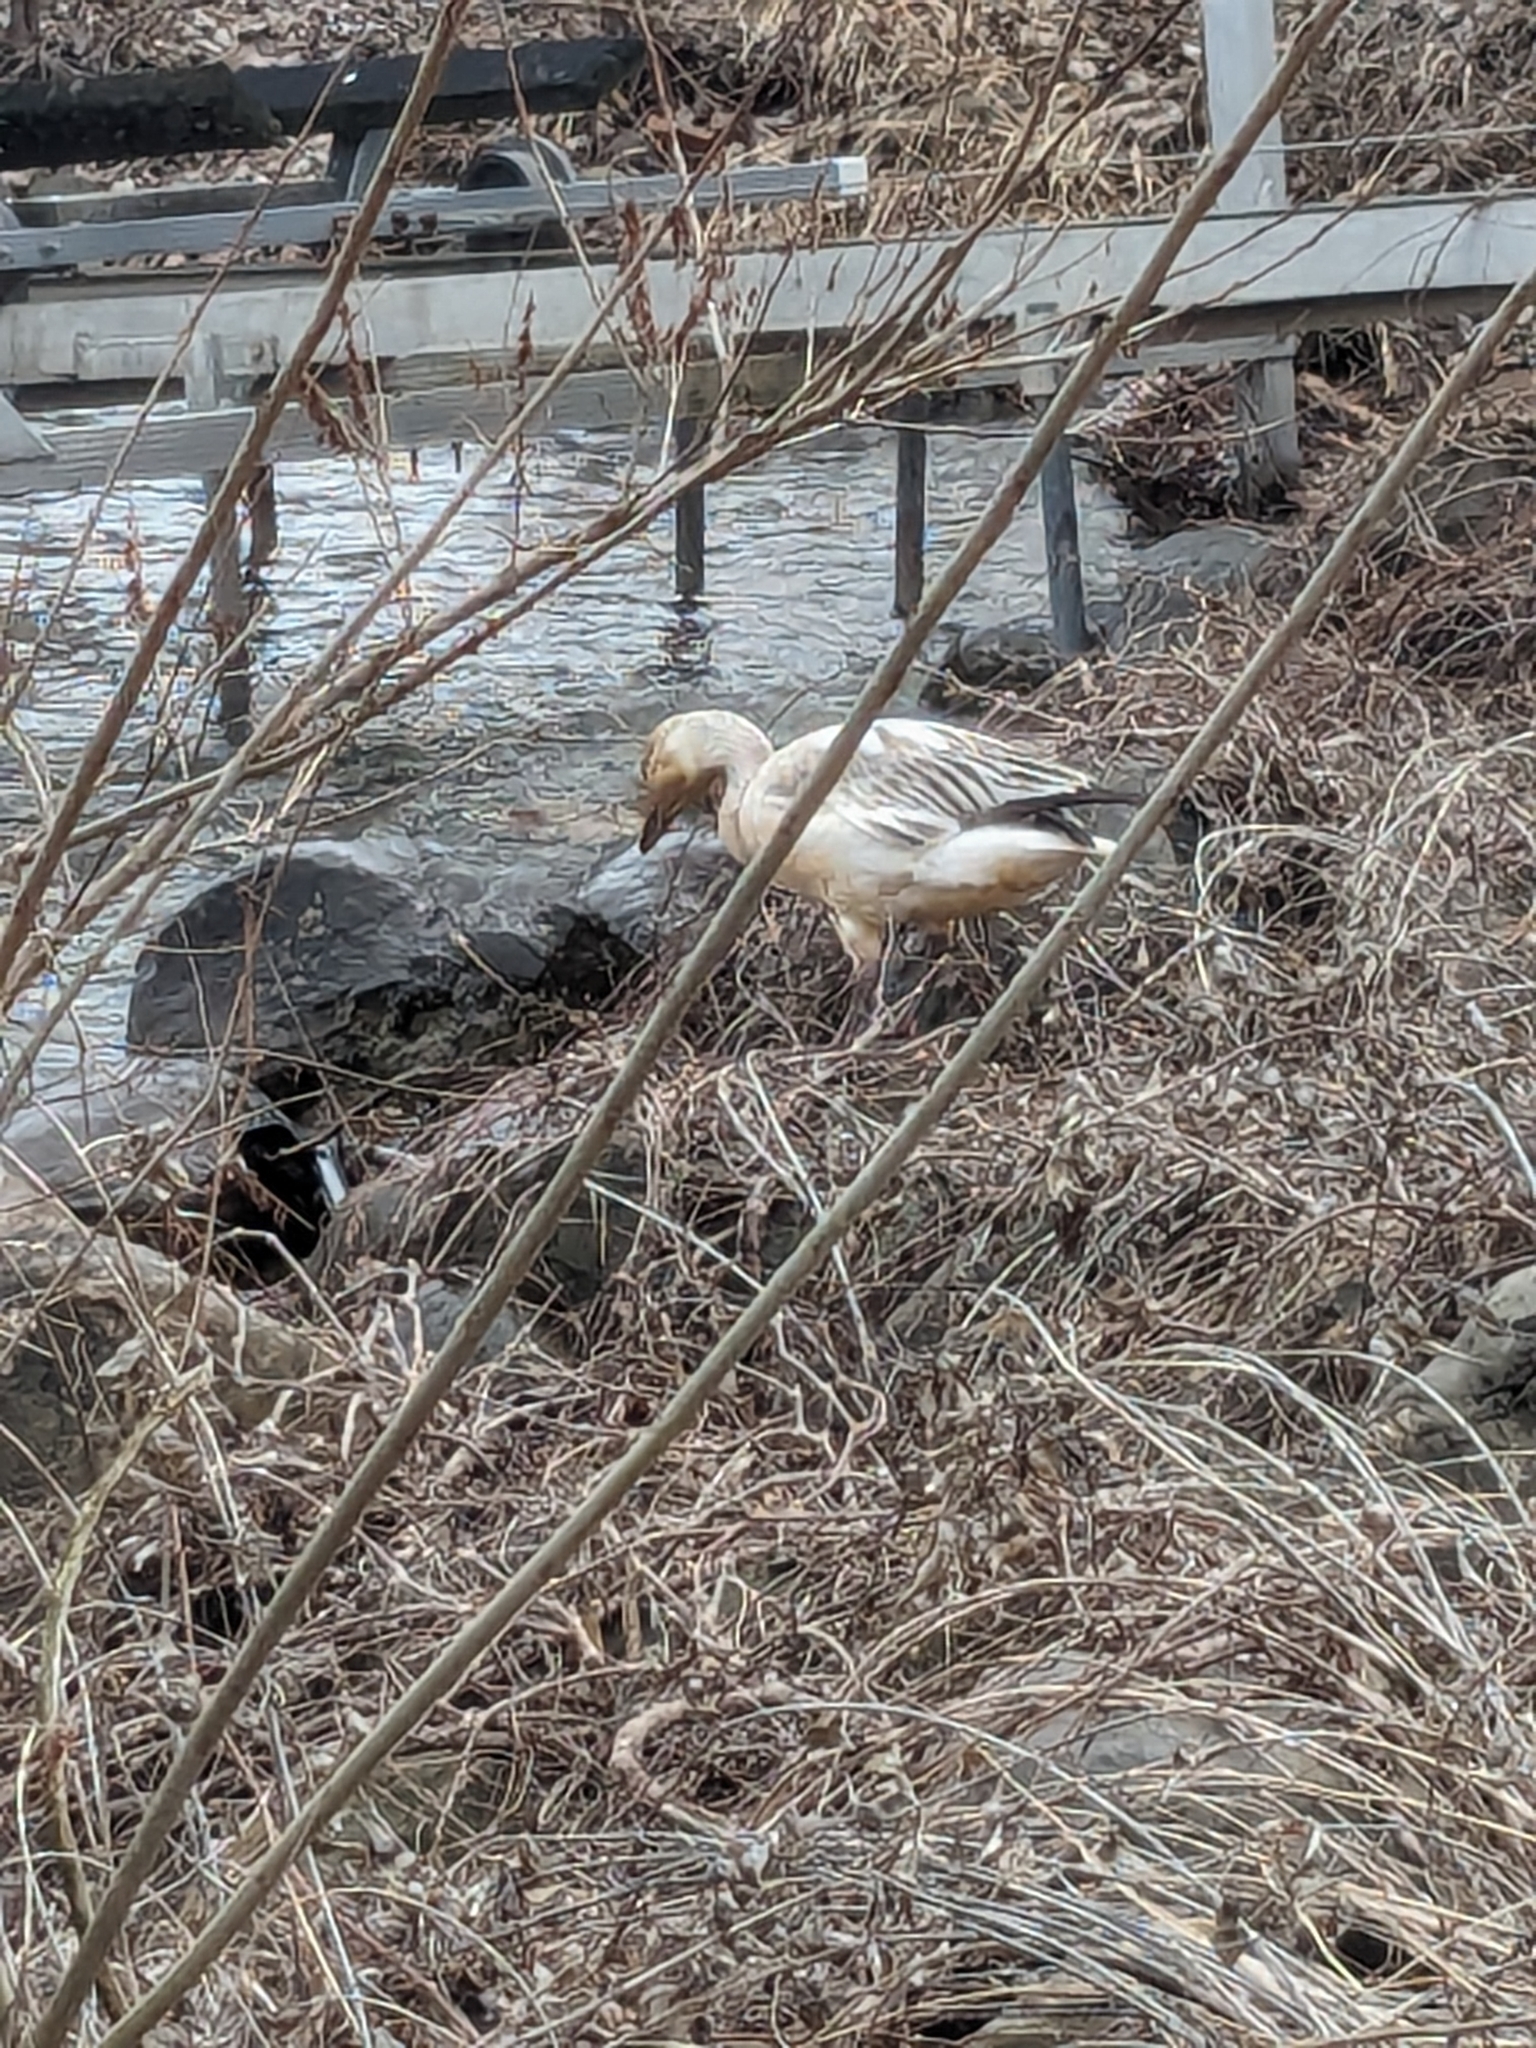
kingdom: Animalia
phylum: Chordata
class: Aves
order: Anseriformes
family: Anatidae
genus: Anser
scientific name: Anser caerulescens
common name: Snow goose
